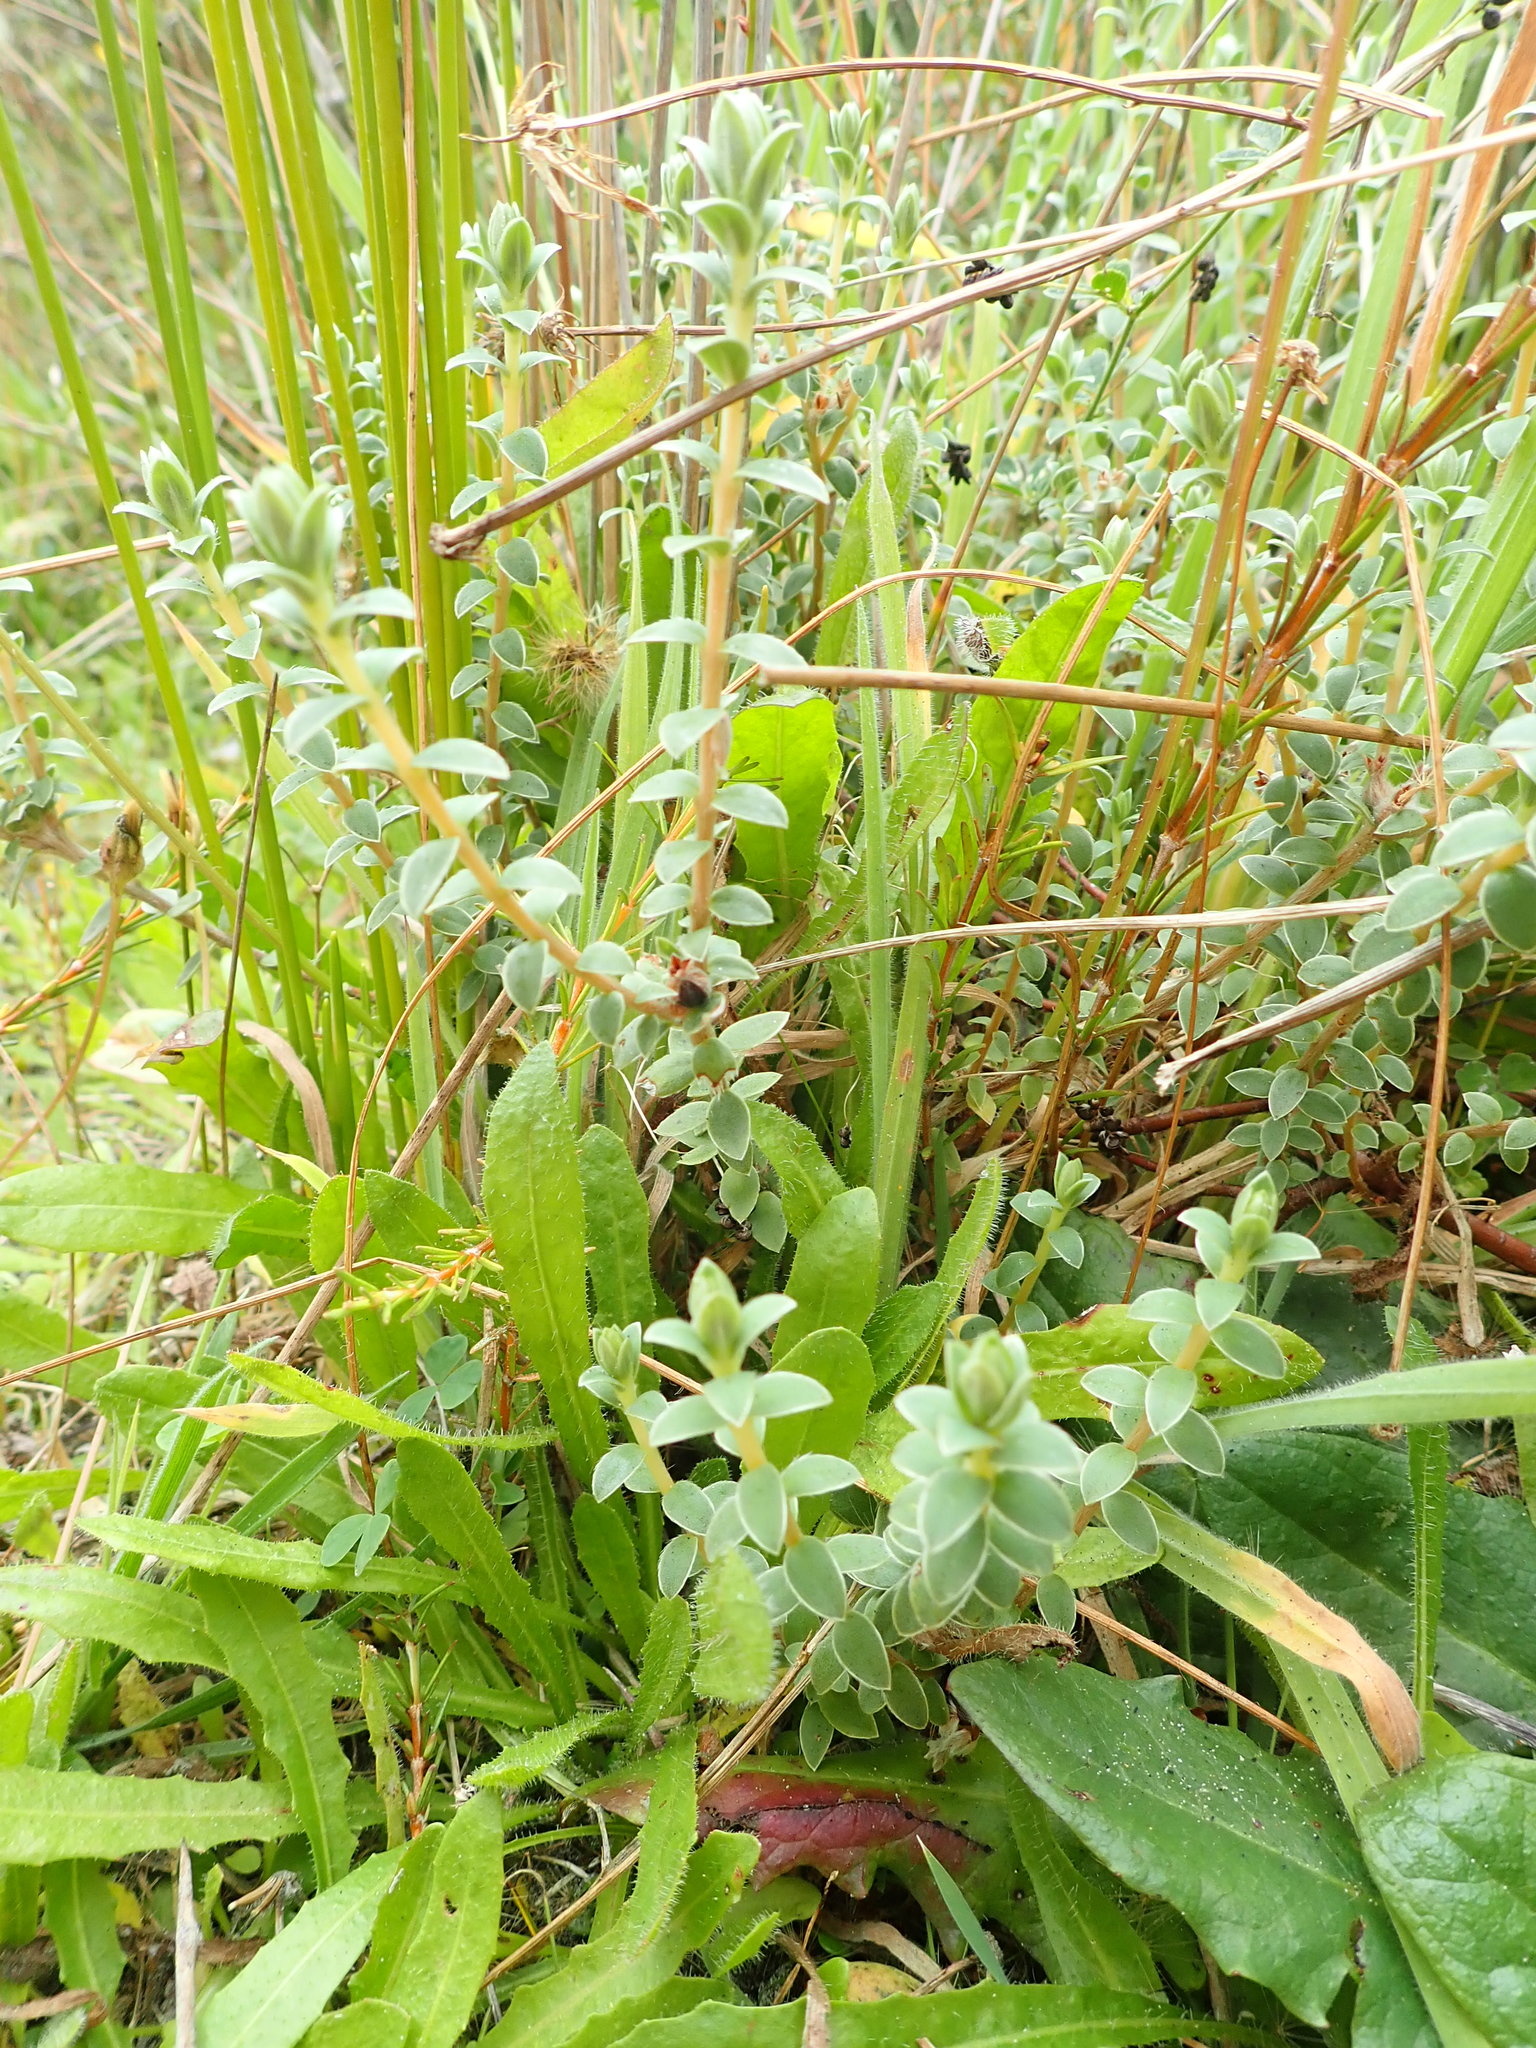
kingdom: Plantae
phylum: Tracheophyta
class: Magnoliopsida
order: Malvales
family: Thymelaeaceae
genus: Pimelea
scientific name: Pimelea villosa
